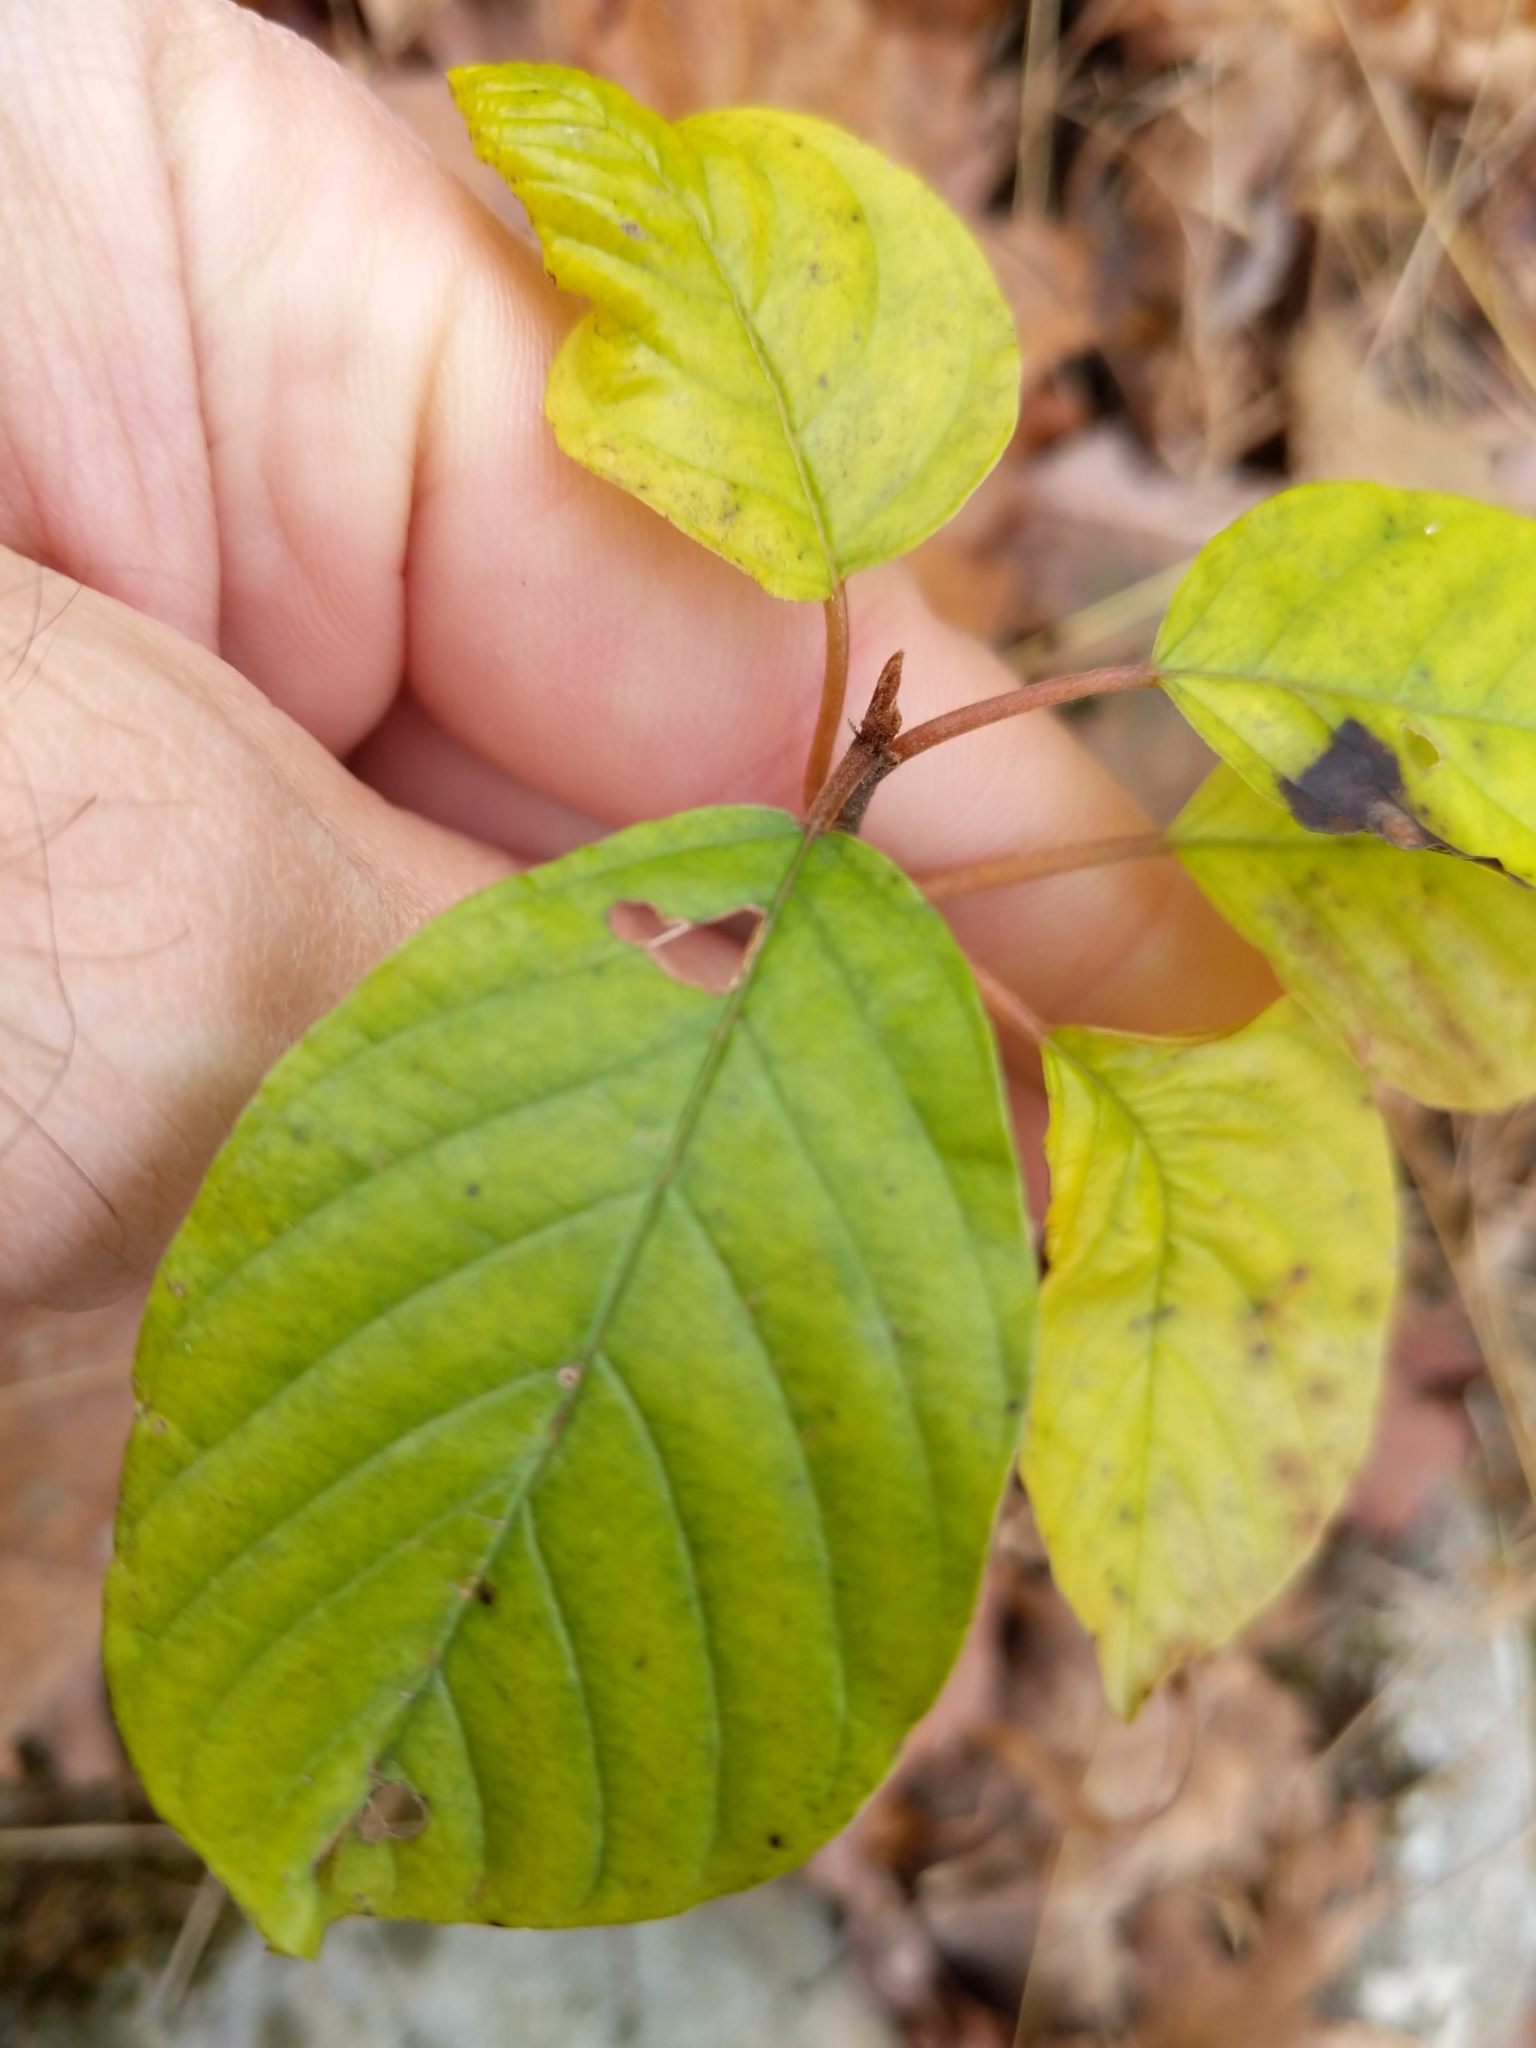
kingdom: Plantae
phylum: Tracheophyta
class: Magnoliopsida
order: Rosales
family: Rhamnaceae
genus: Frangula
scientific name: Frangula alnus
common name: Alder buckthorn
